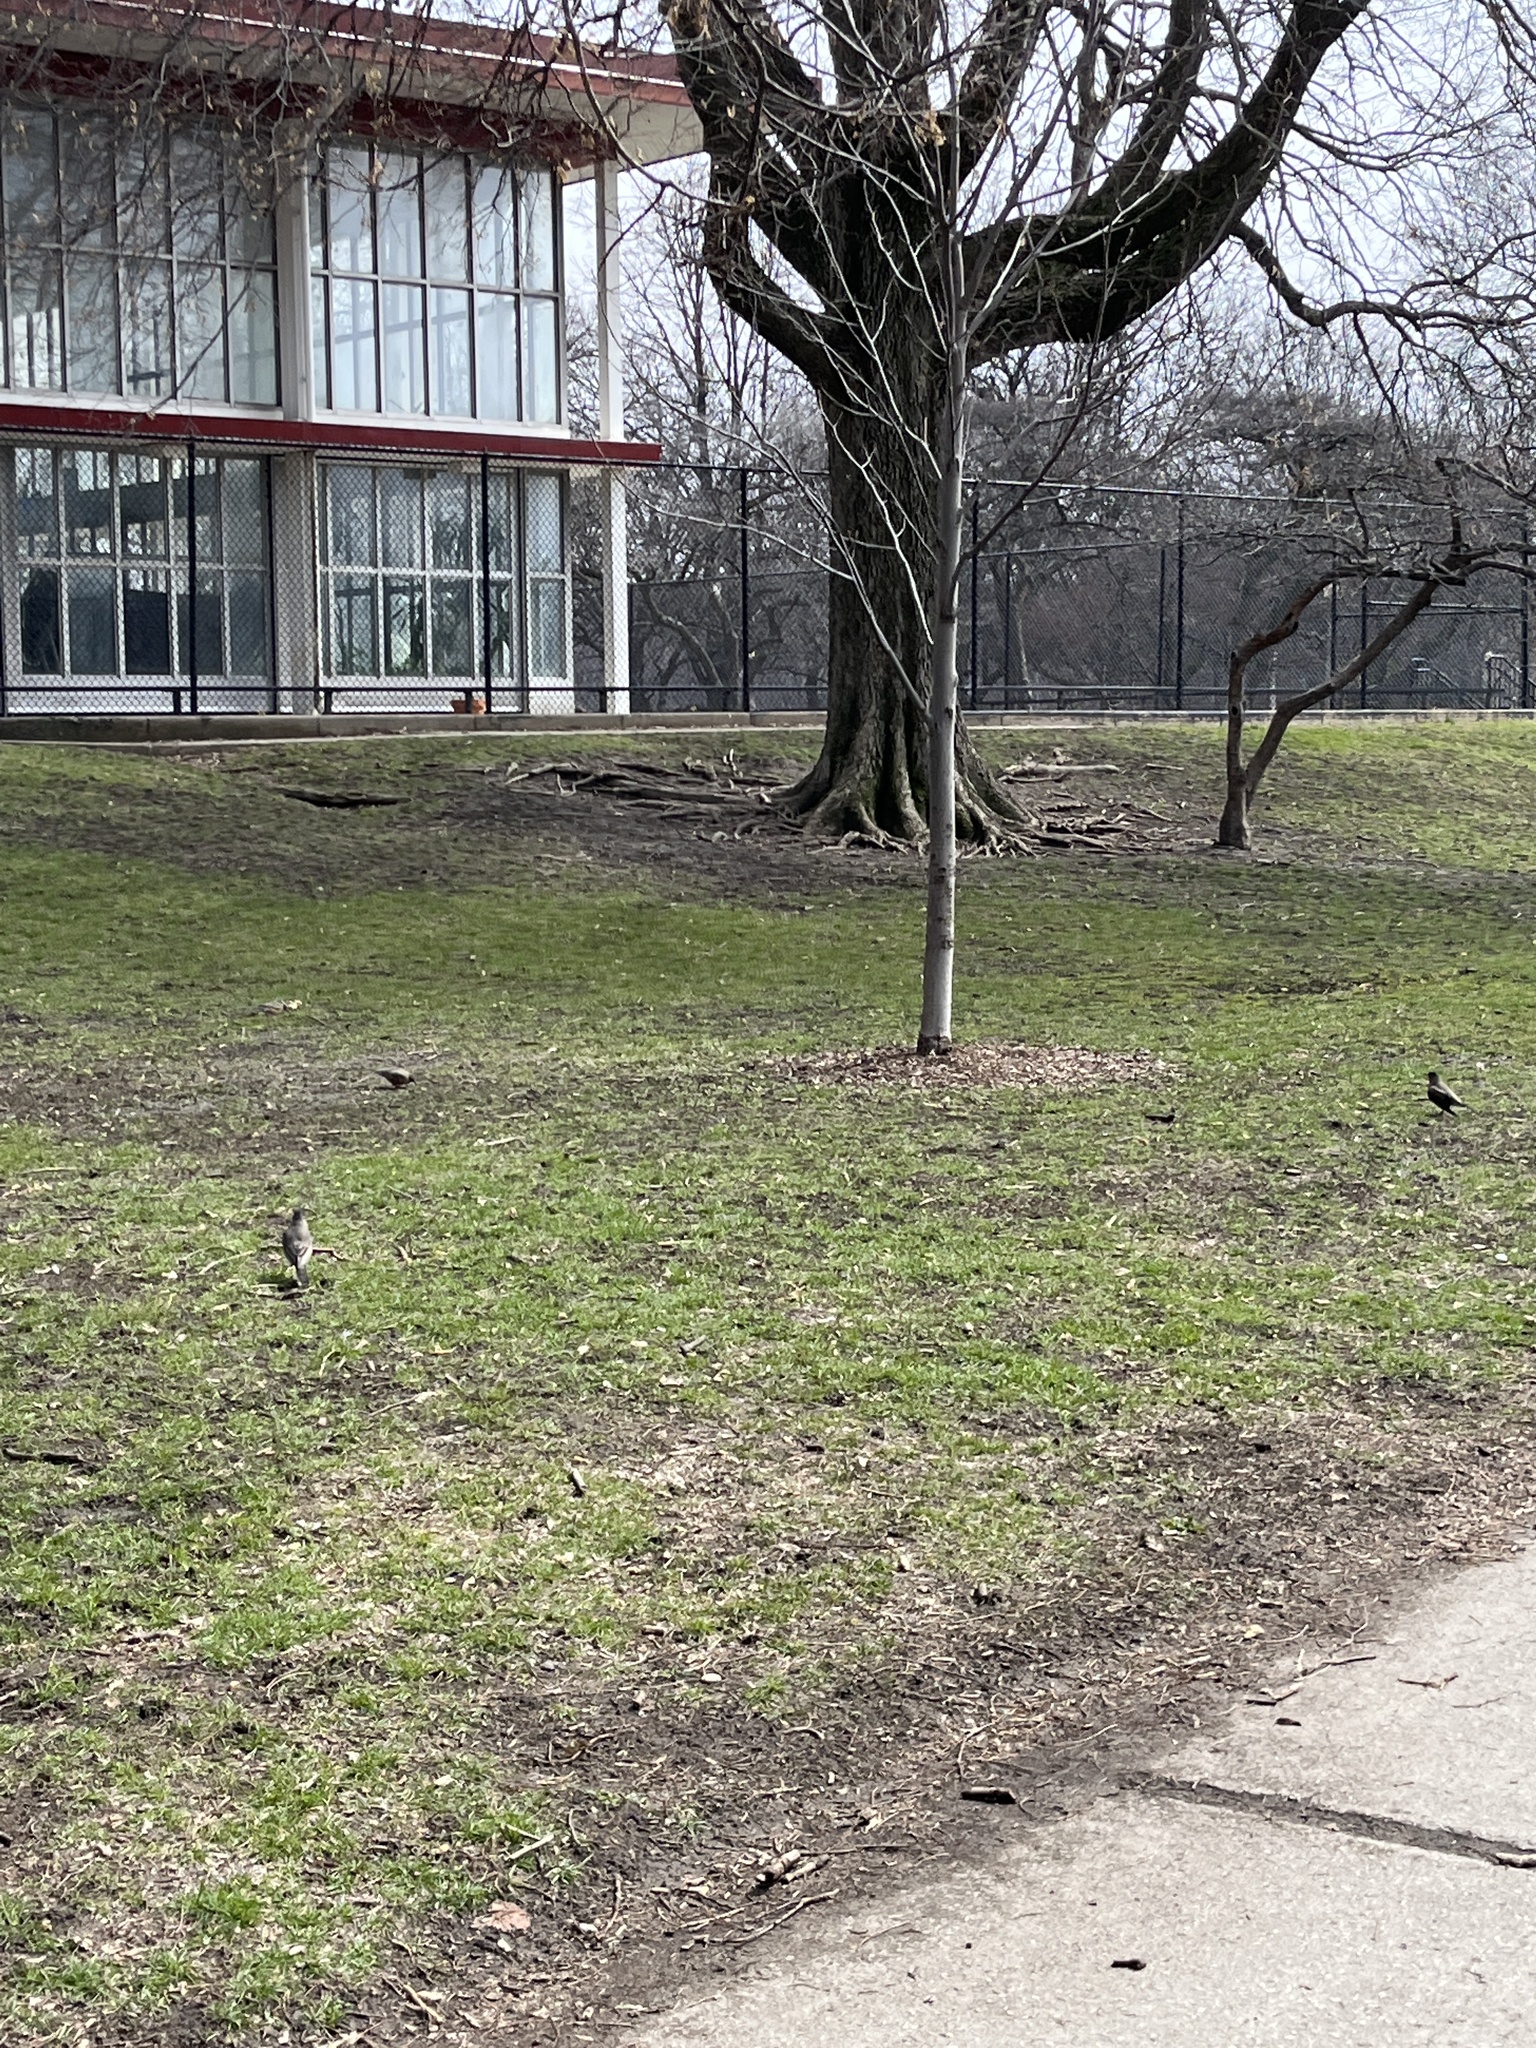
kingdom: Animalia
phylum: Chordata
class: Aves
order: Passeriformes
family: Turdidae
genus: Turdus
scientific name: Turdus migratorius
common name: American robin
